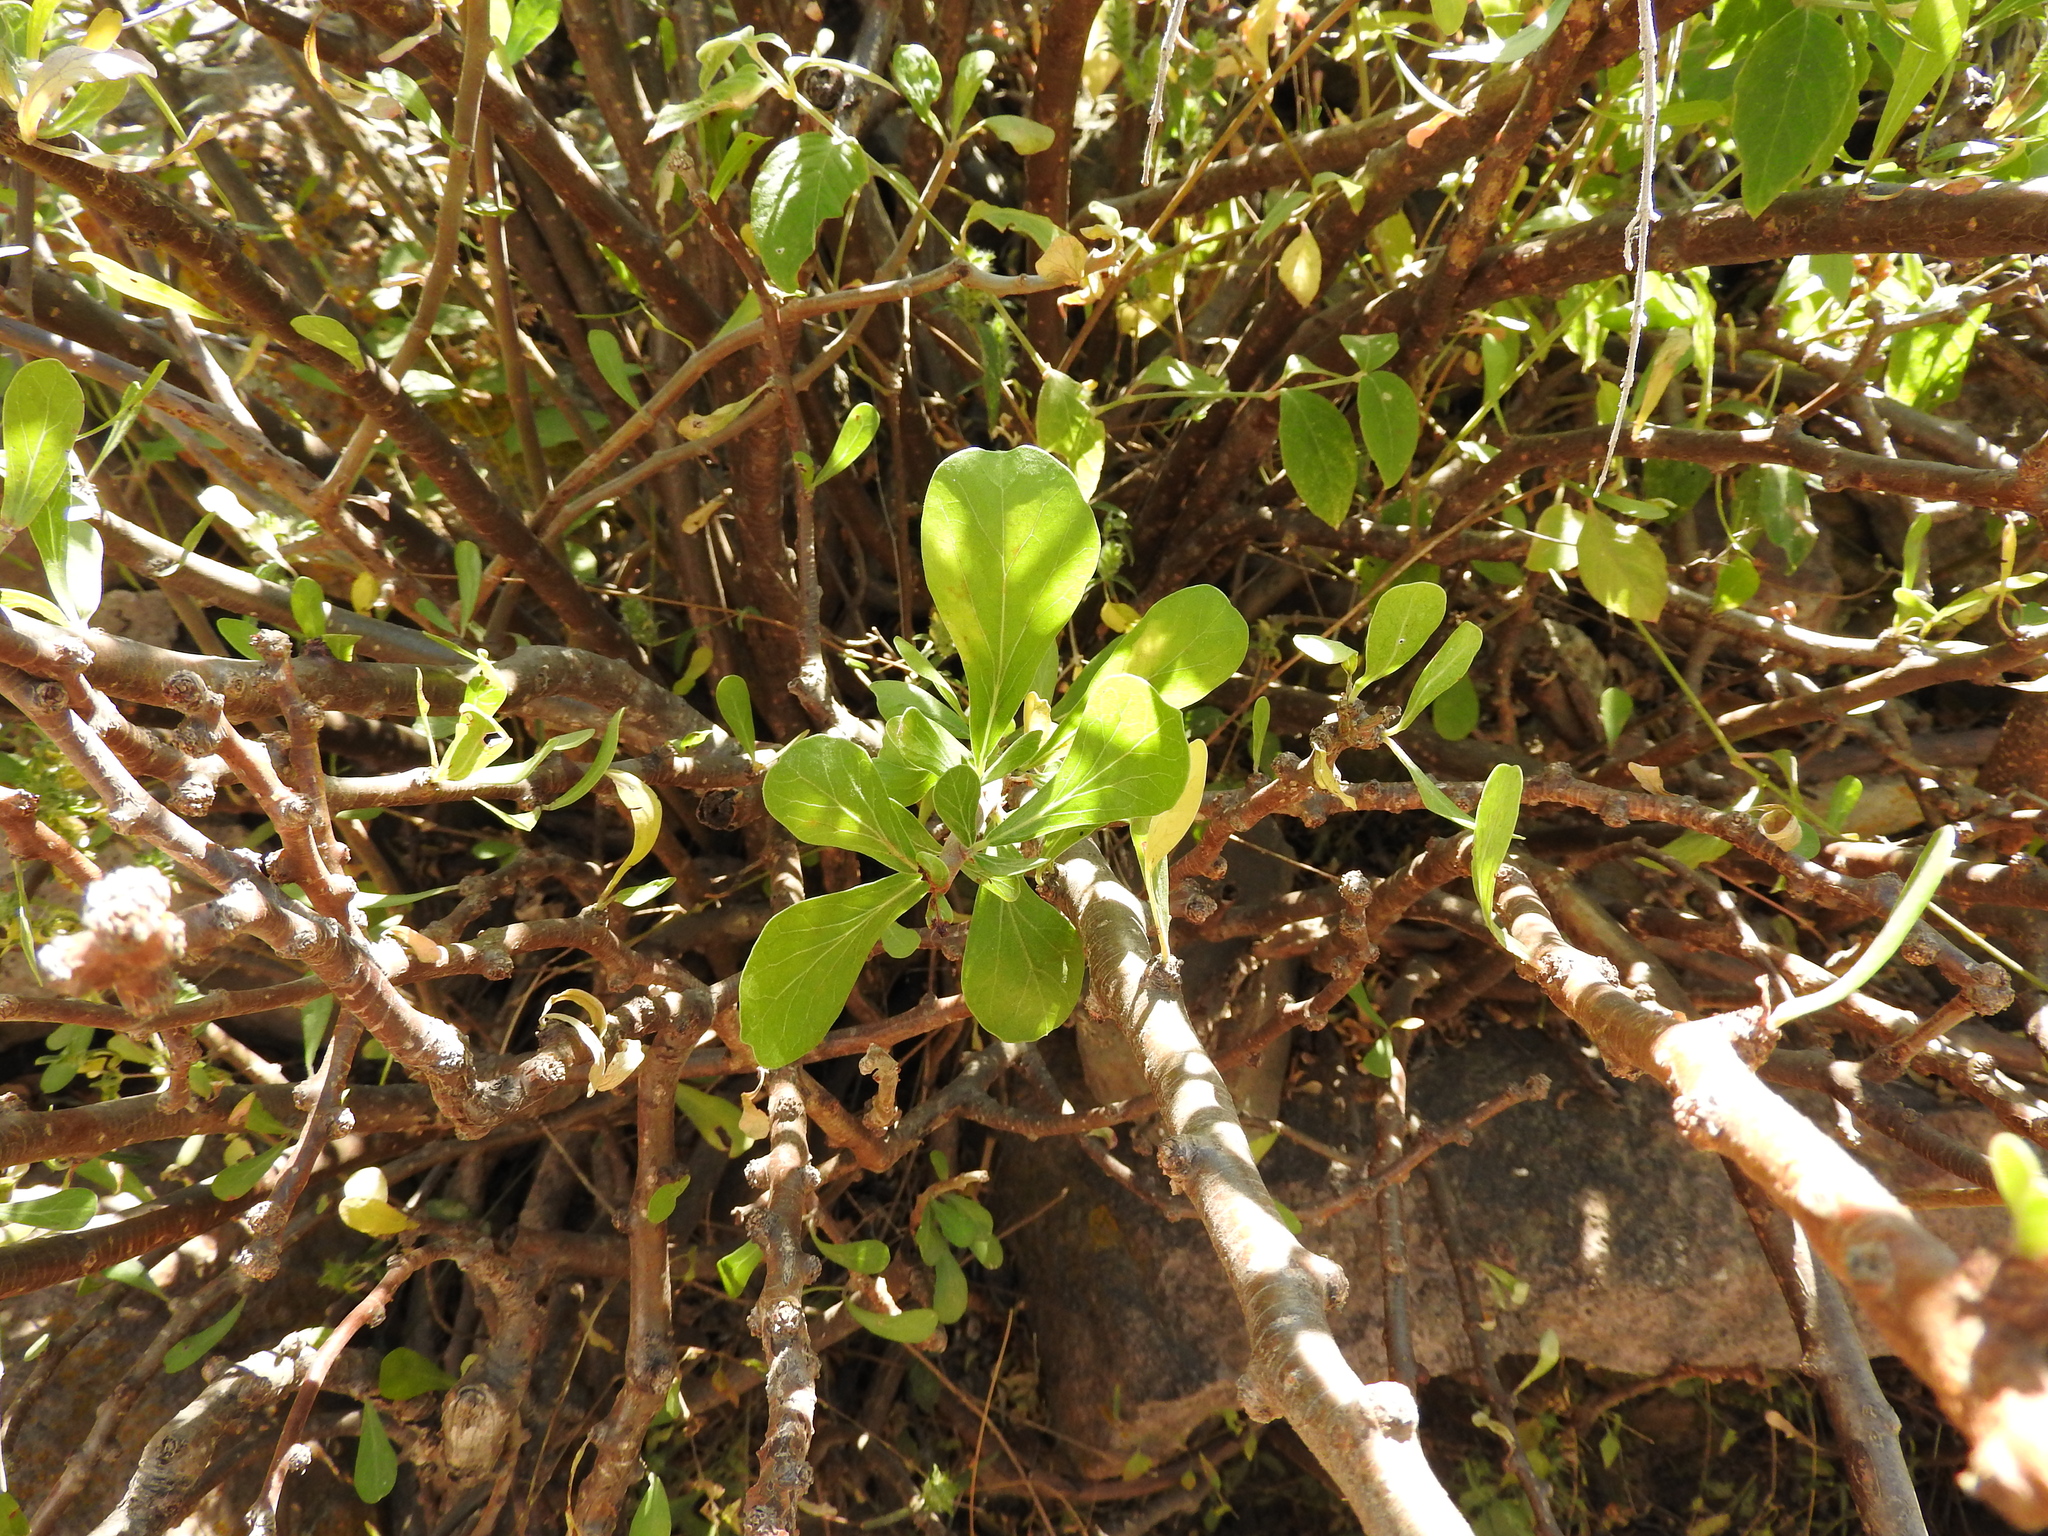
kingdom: Plantae
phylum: Tracheophyta
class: Magnoliopsida
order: Malpighiales
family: Euphorbiaceae
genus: Jatropha
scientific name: Jatropha dioica
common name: Leatherstem
